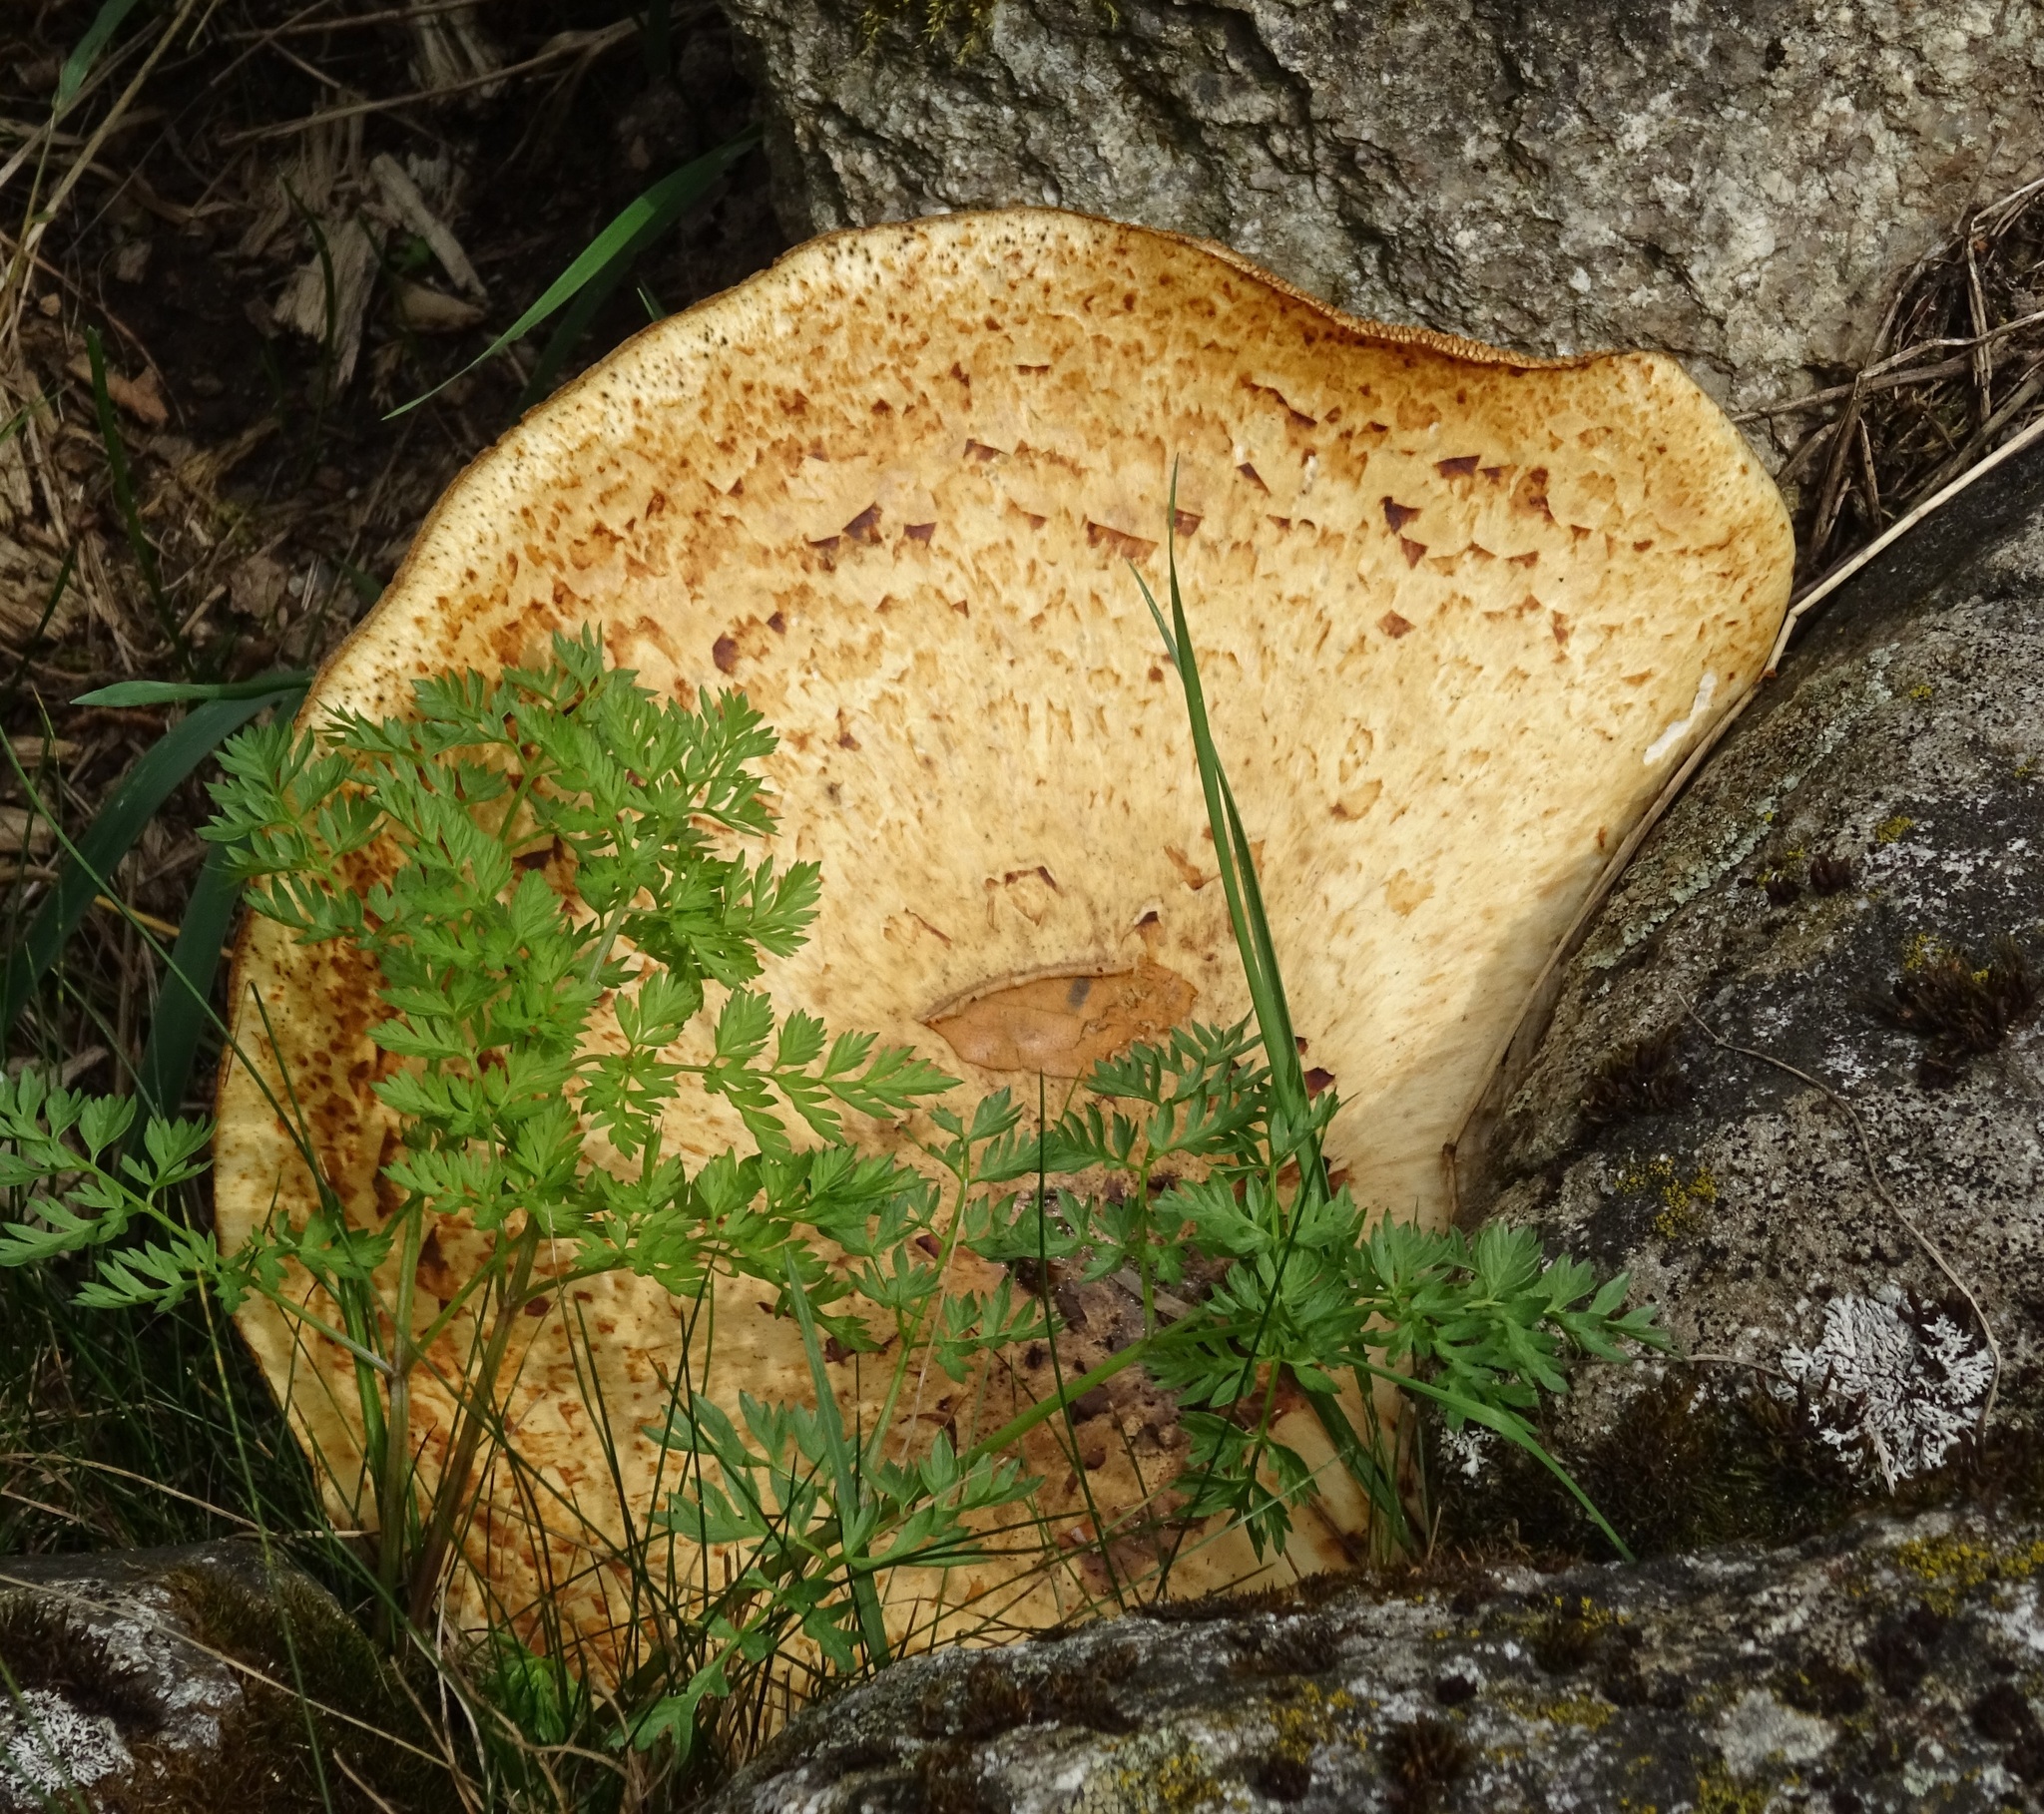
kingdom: Fungi
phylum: Basidiomycota
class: Agaricomycetes
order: Polyporales
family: Polyporaceae
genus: Cerioporus
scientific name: Cerioporus squamosus
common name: Dryad's saddle
